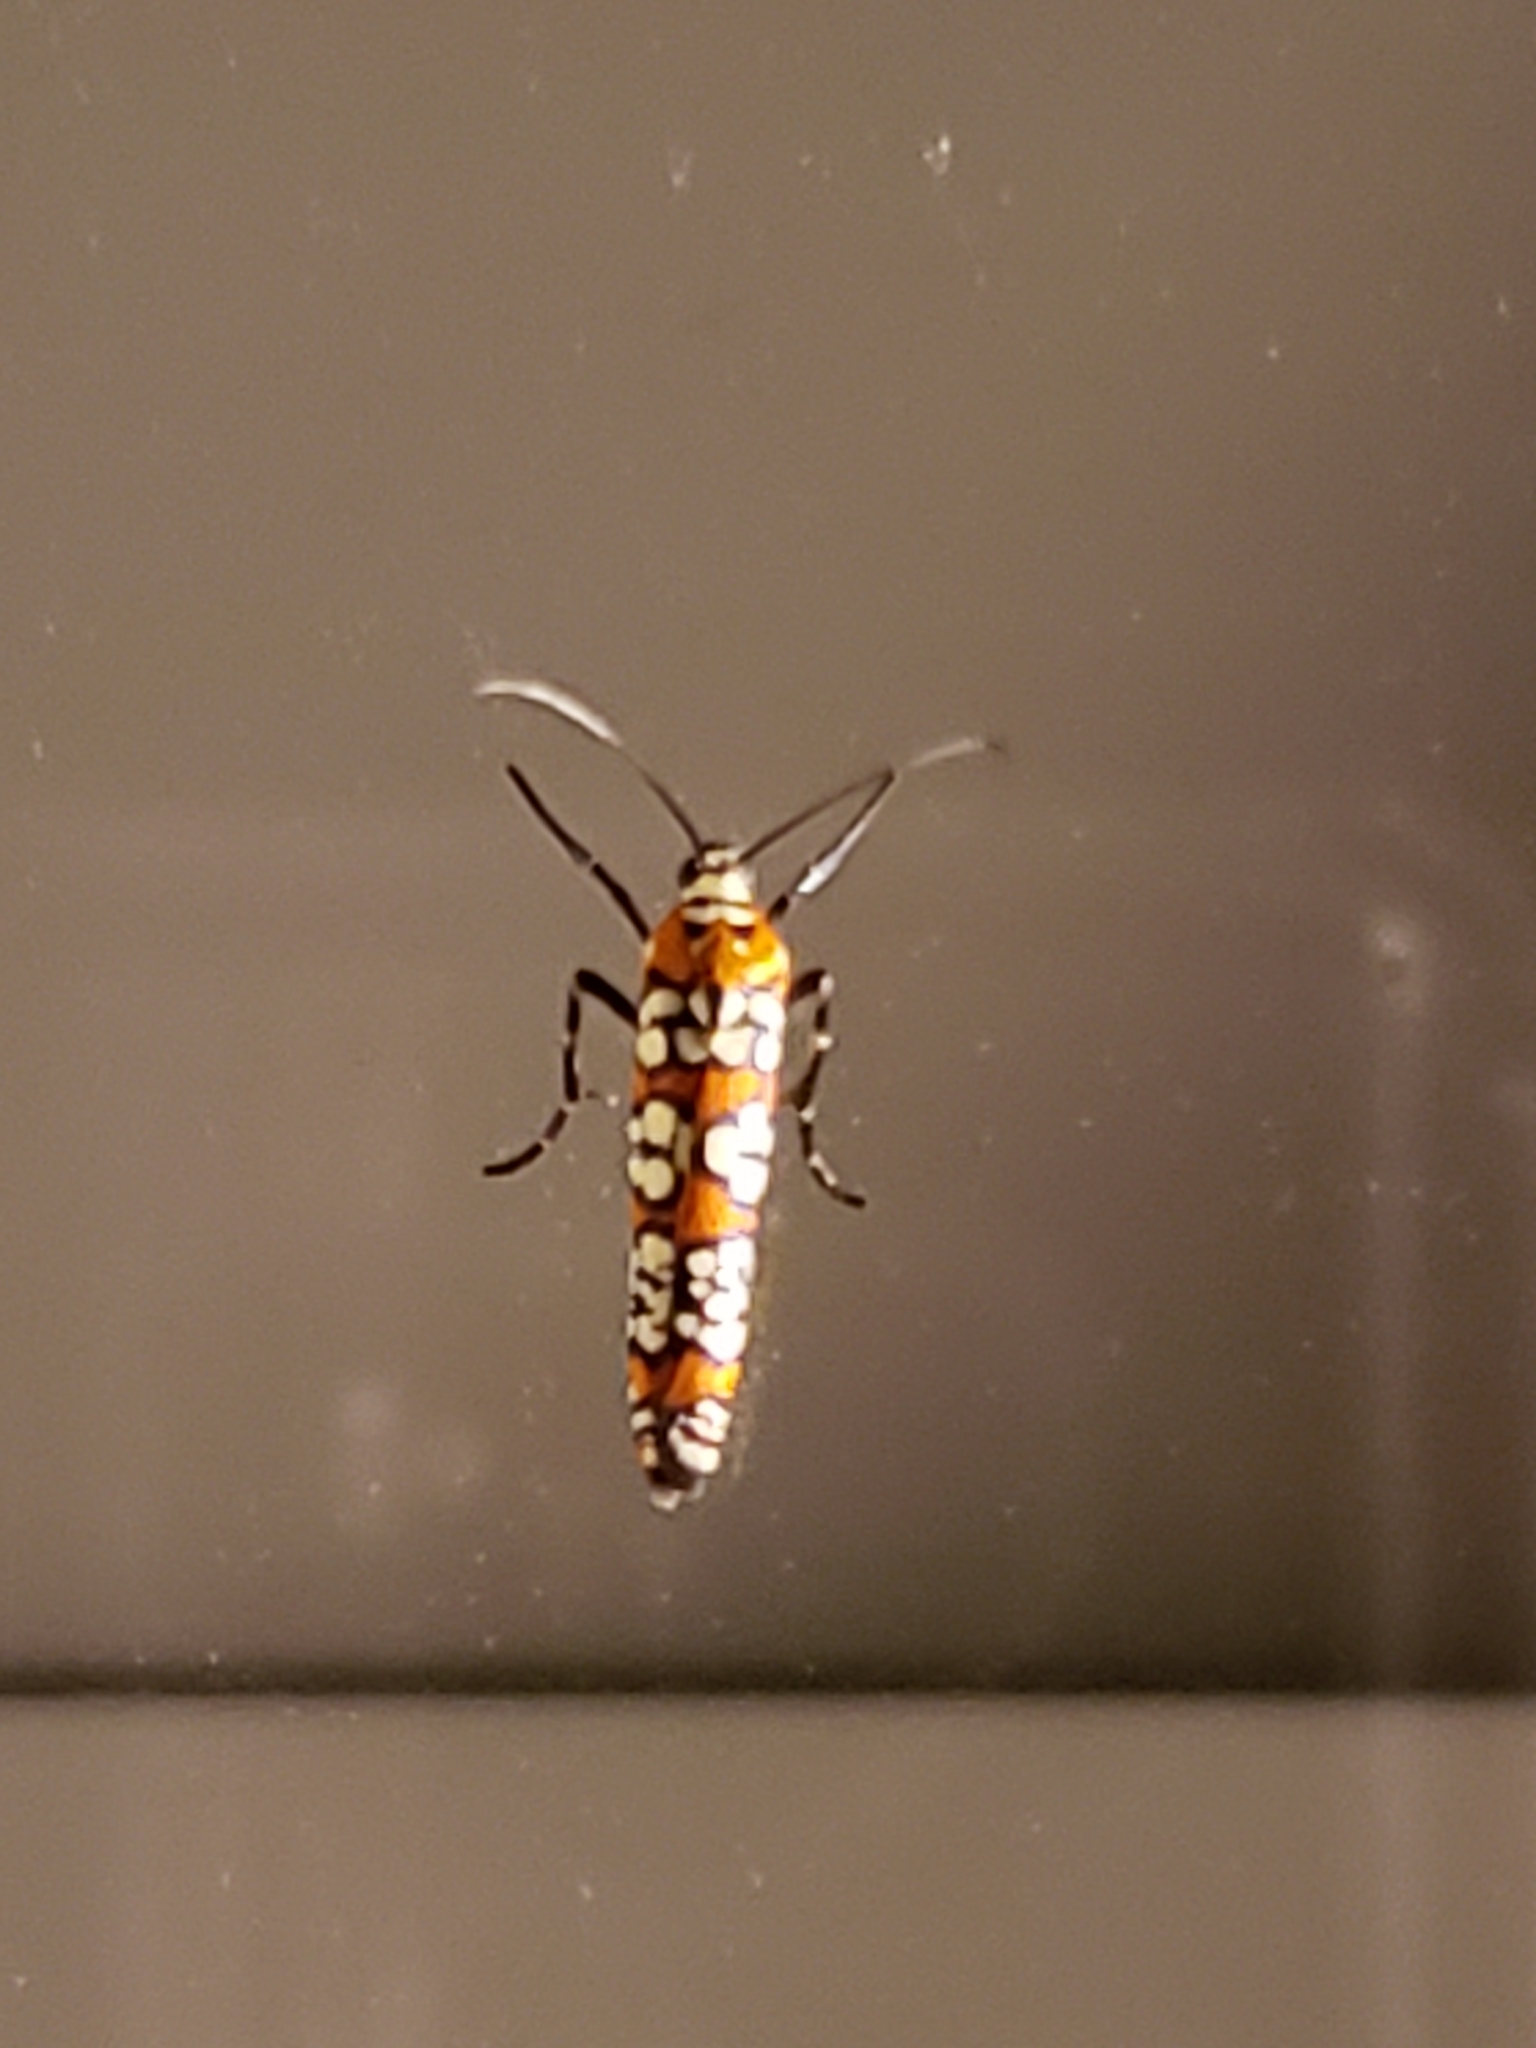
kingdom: Animalia
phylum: Arthropoda
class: Insecta
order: Lepidoptera
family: Attevidae
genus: Atteva
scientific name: Atteva punctella
